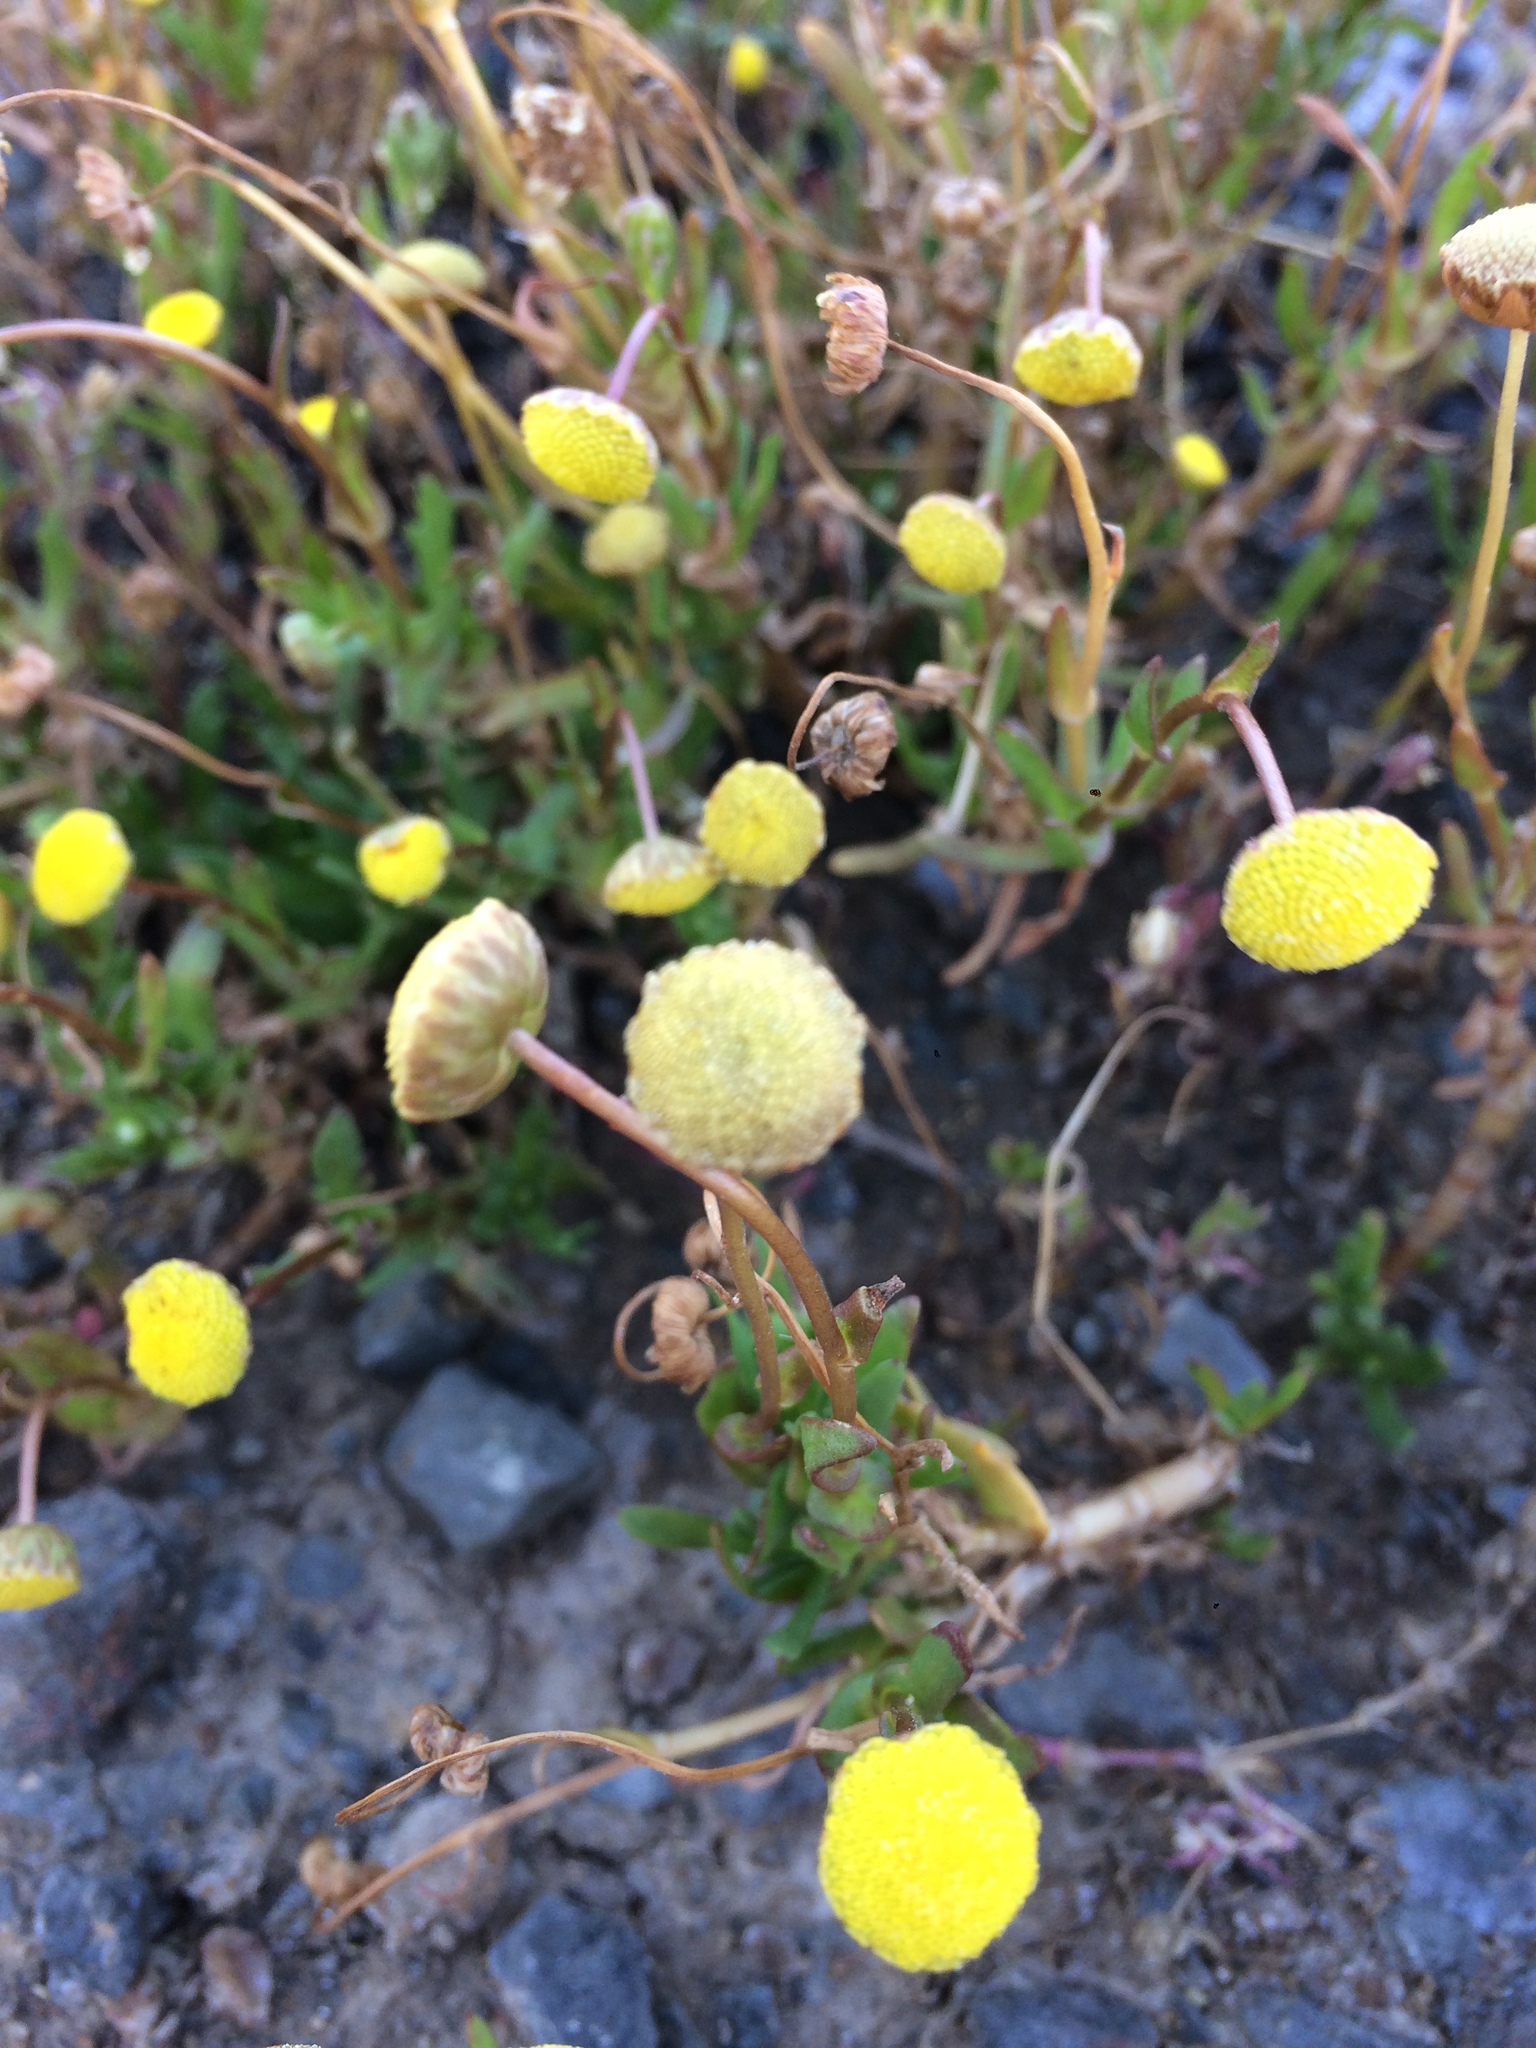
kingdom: Plantae
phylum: Tracheophyta
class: Magnoliopsida
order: Asterales
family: Asteraceae
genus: Cotula
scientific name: Cotula coronopifolia
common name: Buttonweed
